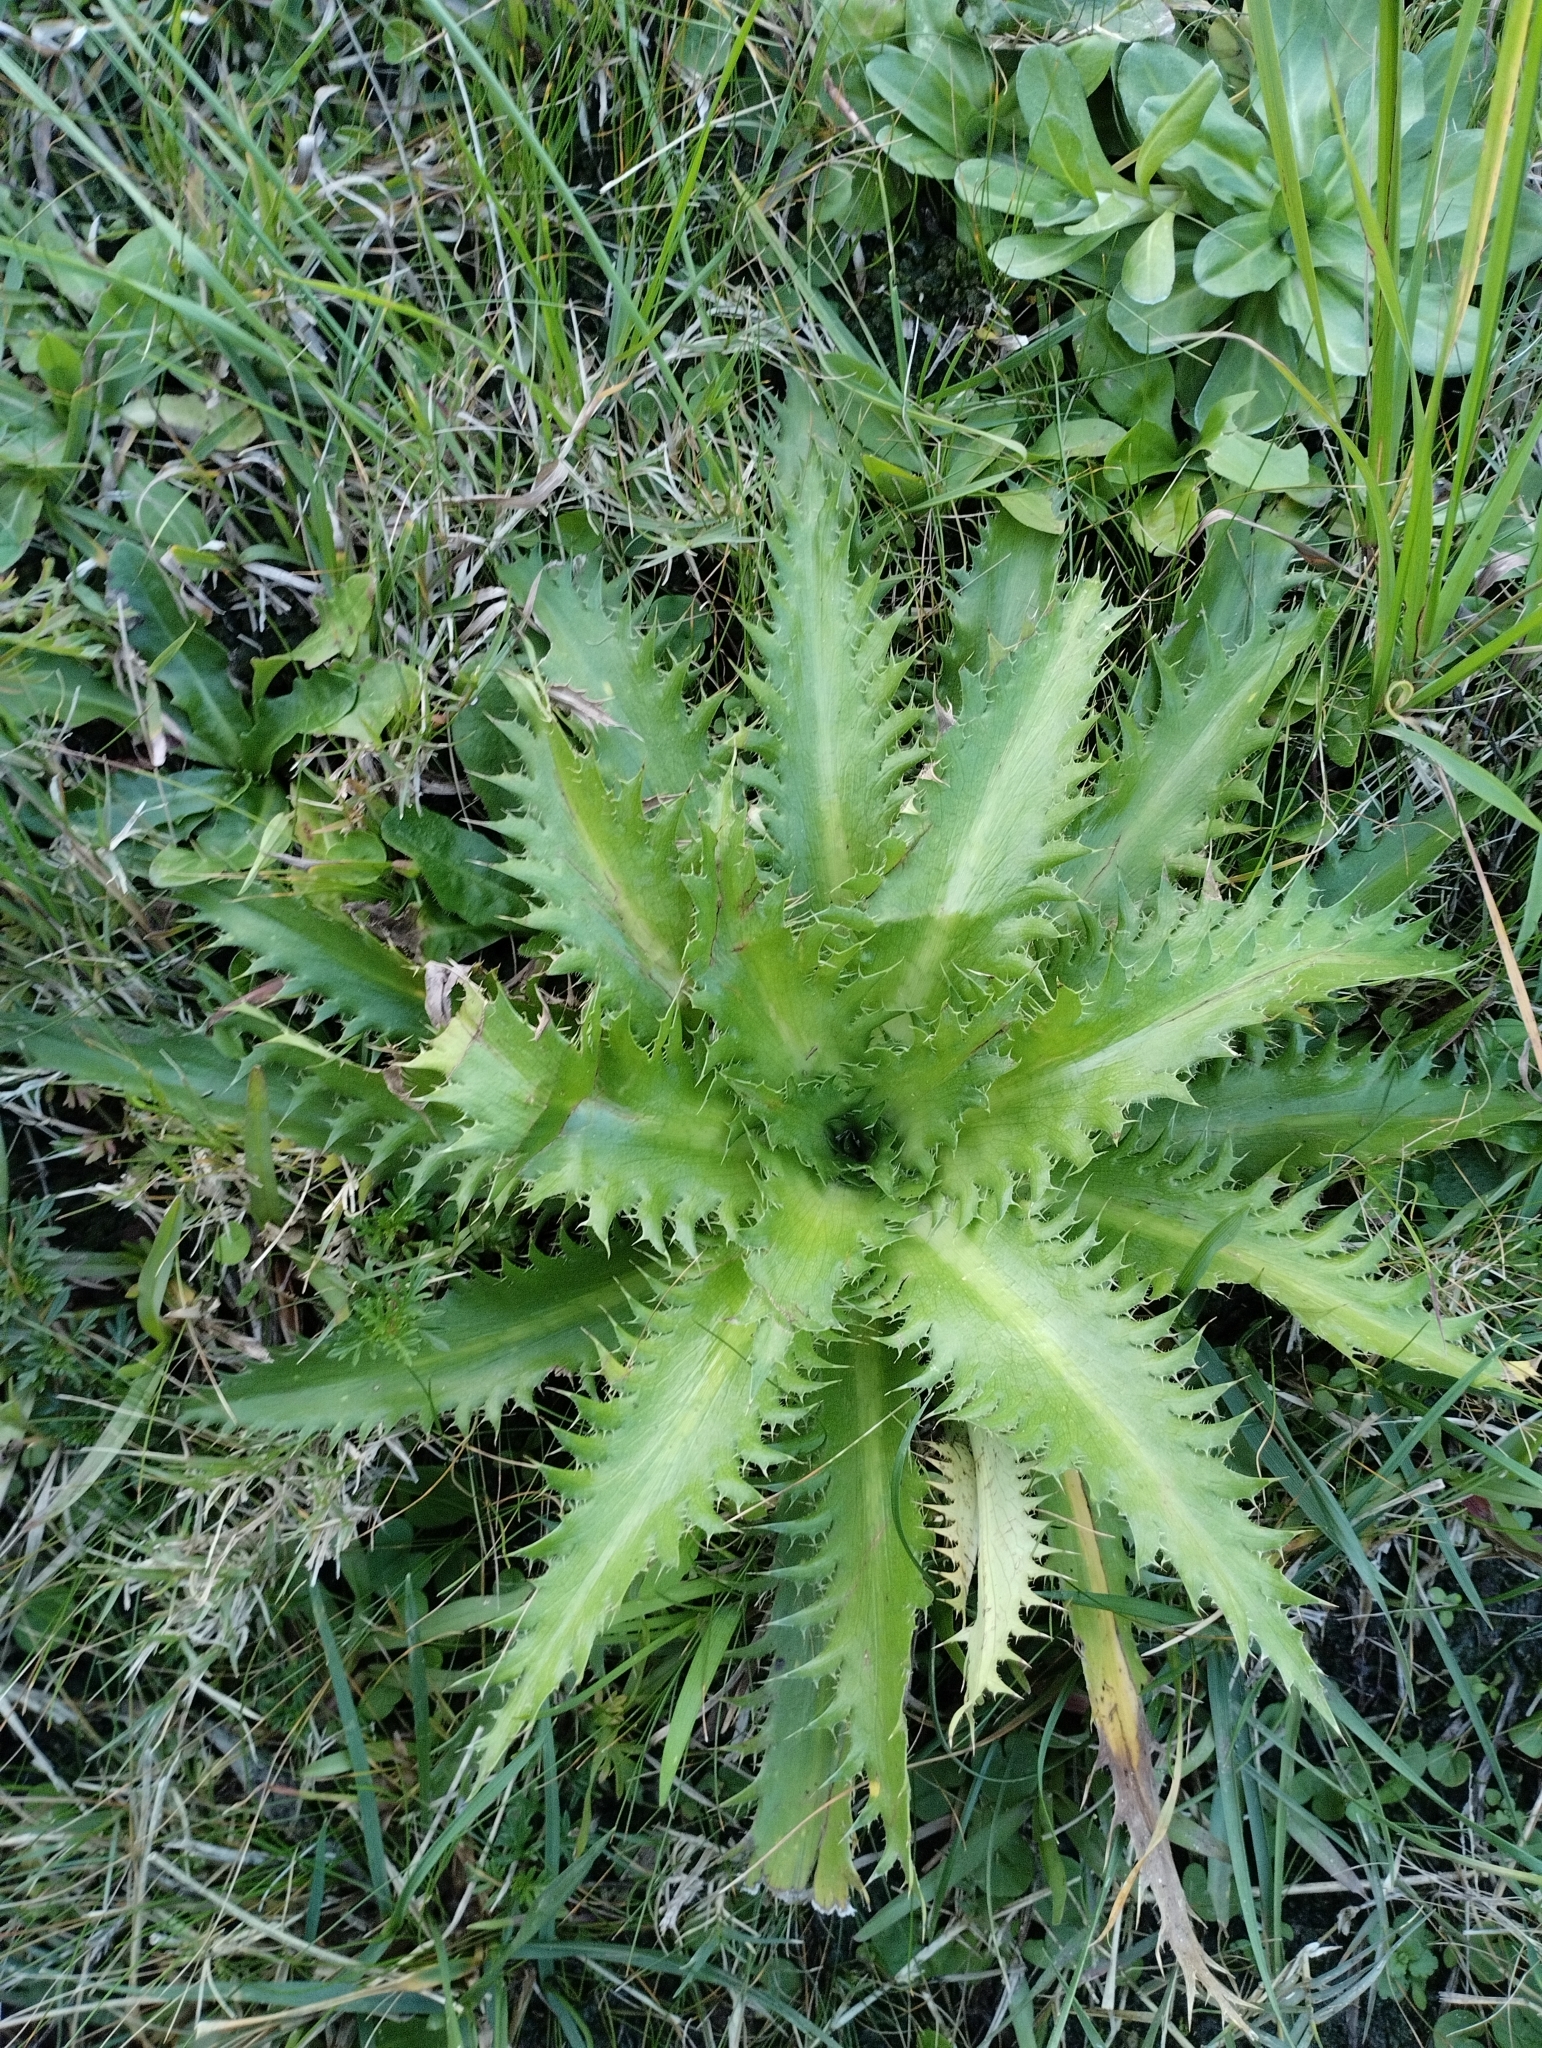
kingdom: Plantae
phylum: Tracheophyta
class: Magnoliopsida
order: Apiales
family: Apiaceae
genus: Eryngium
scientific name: Eryngium serra
